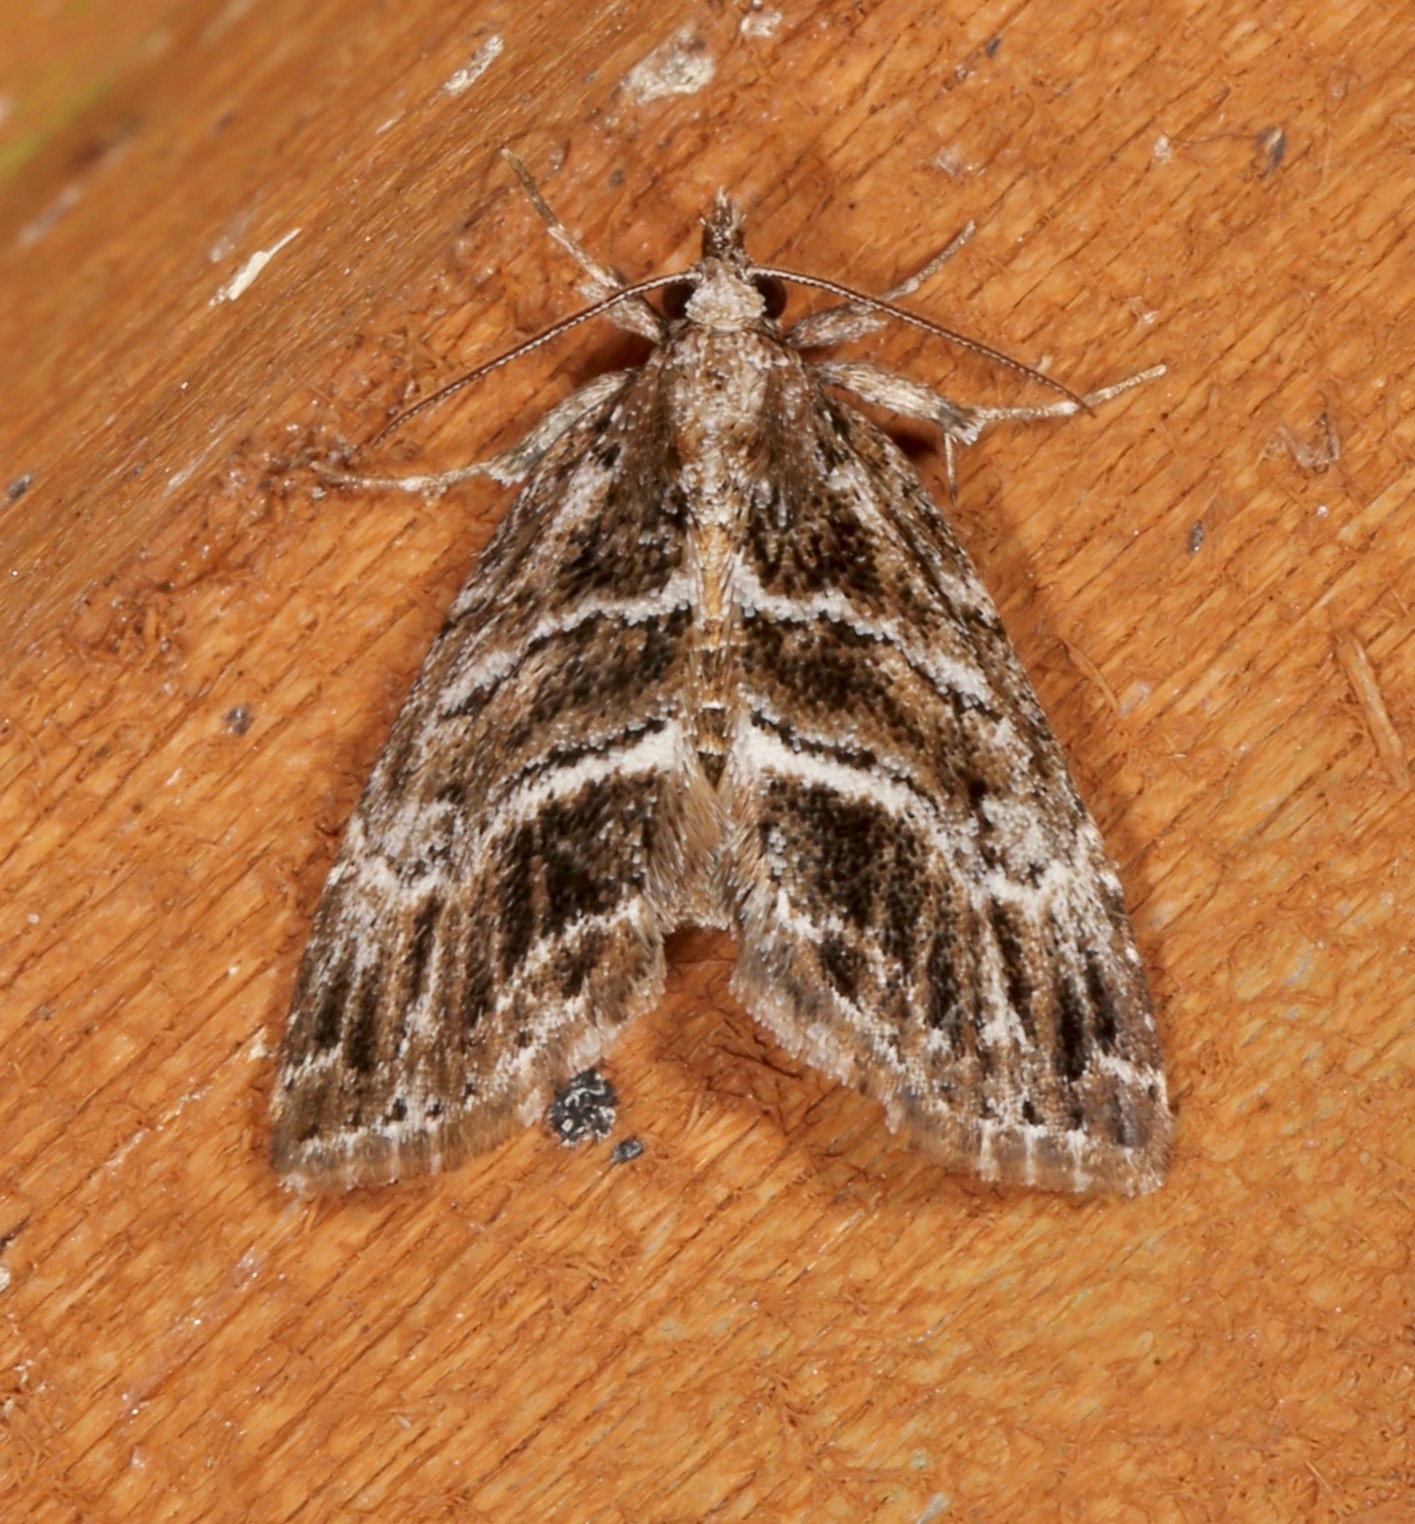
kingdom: Animalia
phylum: Arthropoda
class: Insecta
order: Lepidoptera
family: Erebidae
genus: Cutina
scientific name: Cutina arcuata
